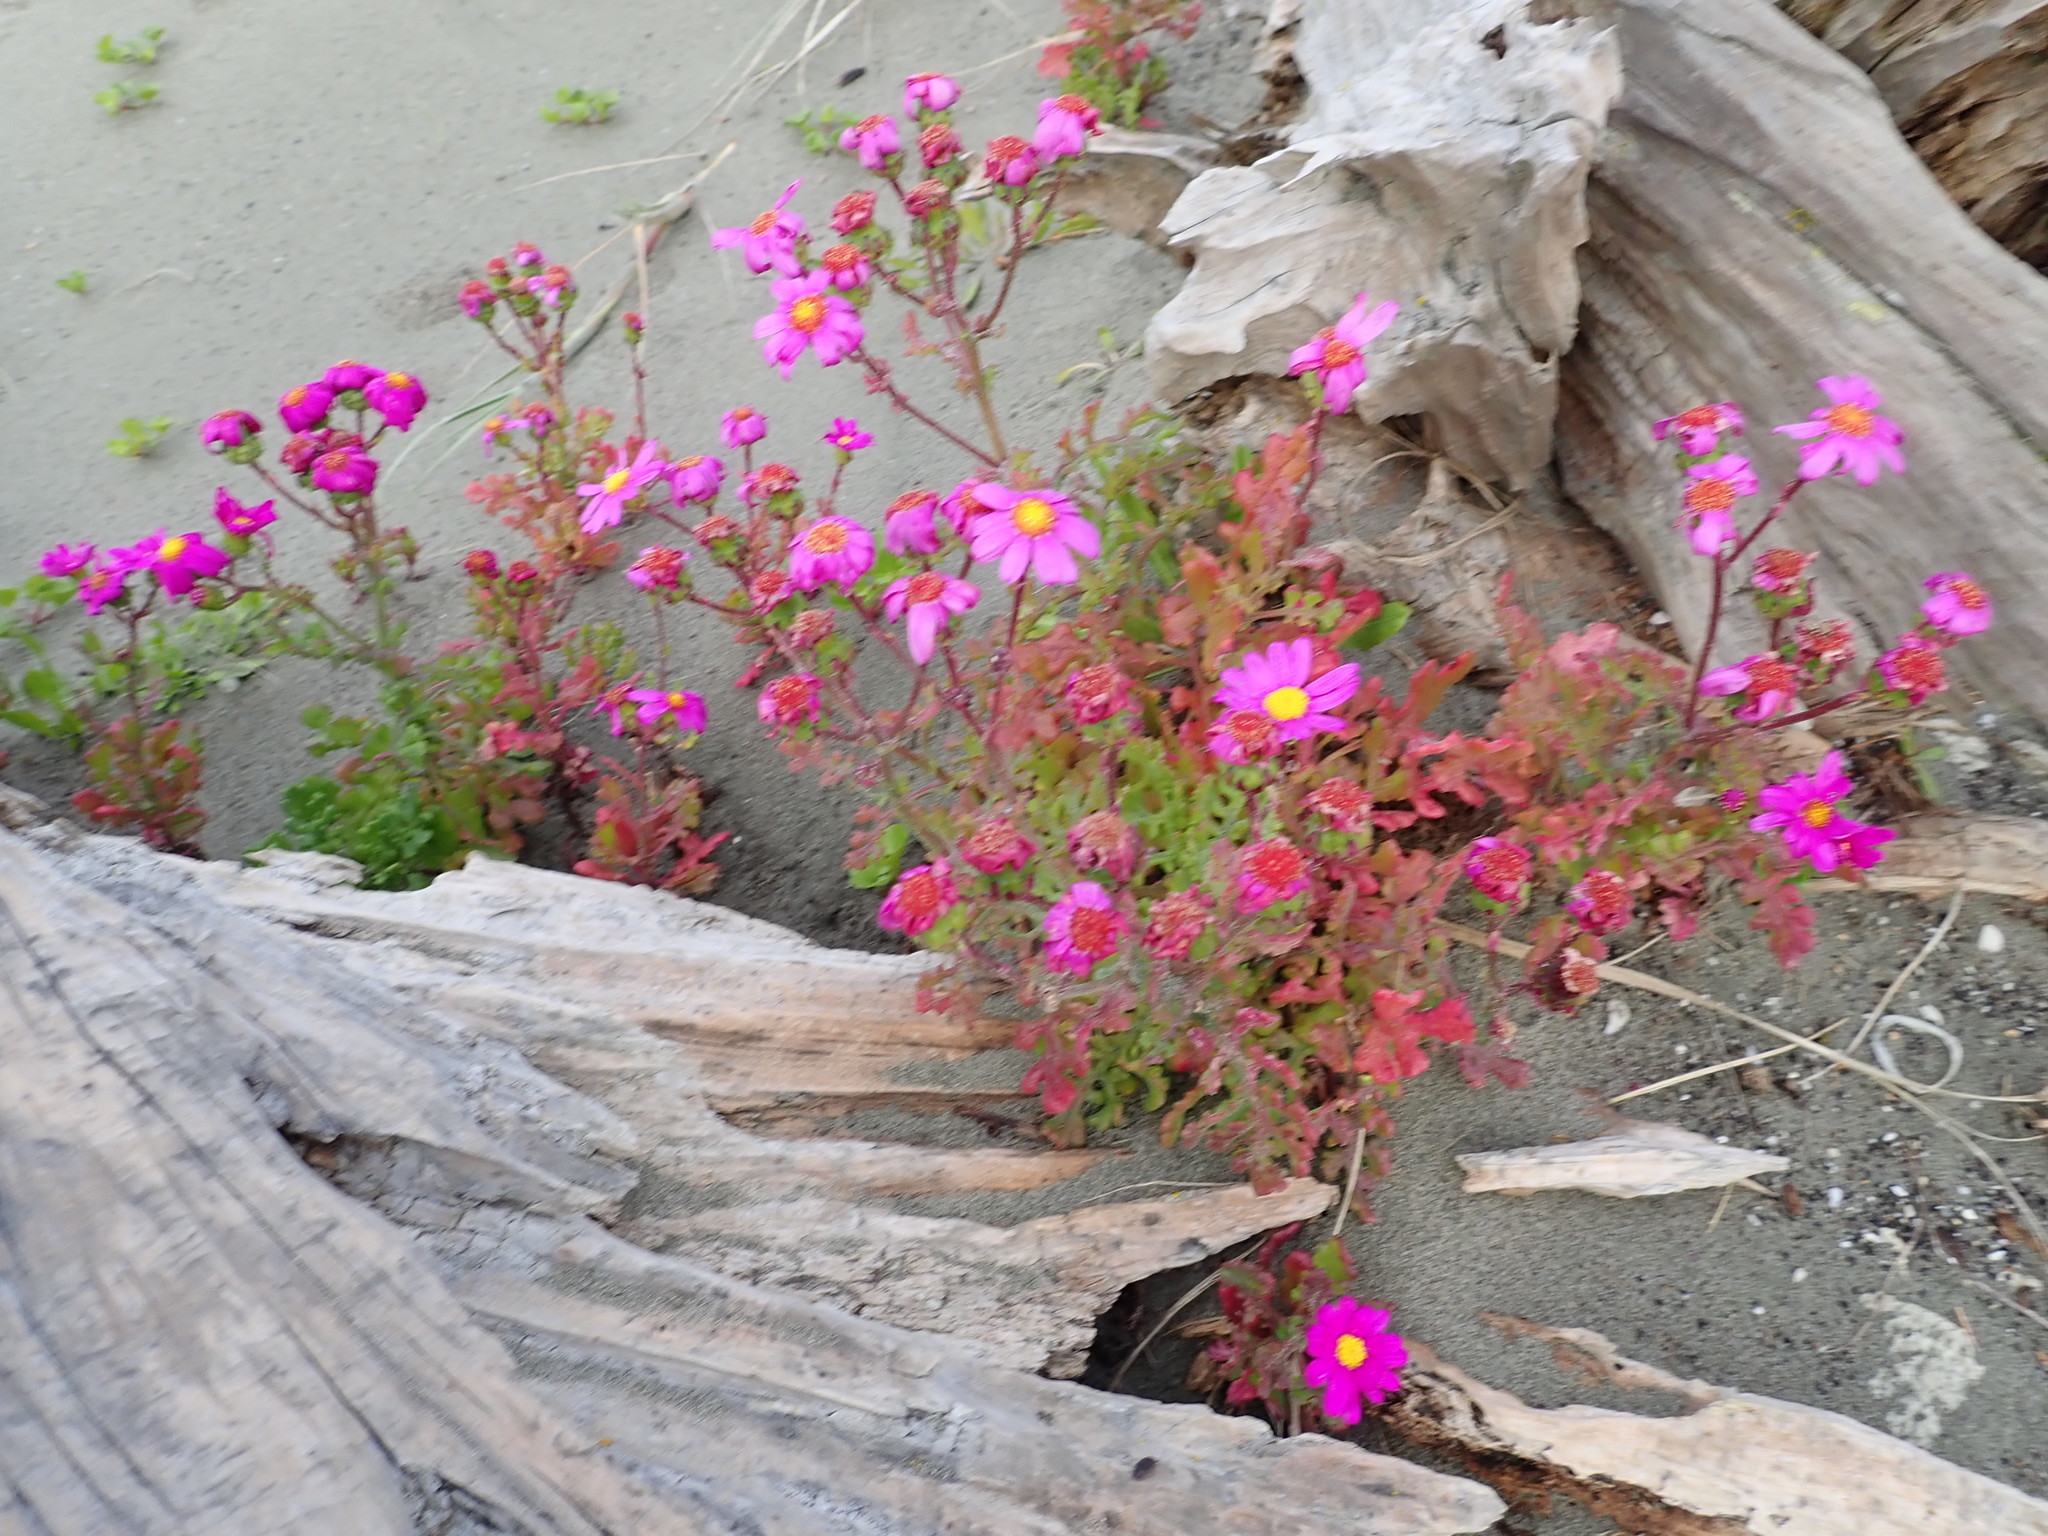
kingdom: Plantae
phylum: Tracheophyta
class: Magnoliopsida
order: Asterales
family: Asteraceae
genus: Senecio
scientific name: Senecio elegans
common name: Purple groundsel
